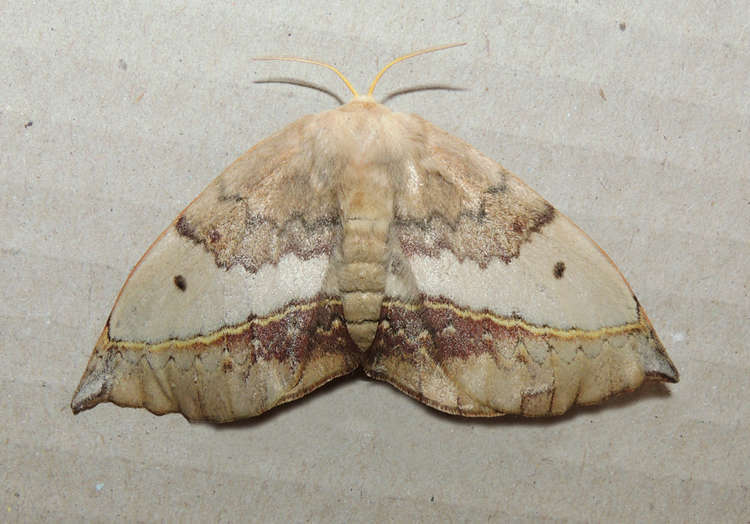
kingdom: Animalia
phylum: Arthropoda
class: Insecta
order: Lepidoptera
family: Anthelidae
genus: Anthela
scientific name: Anthela varia
